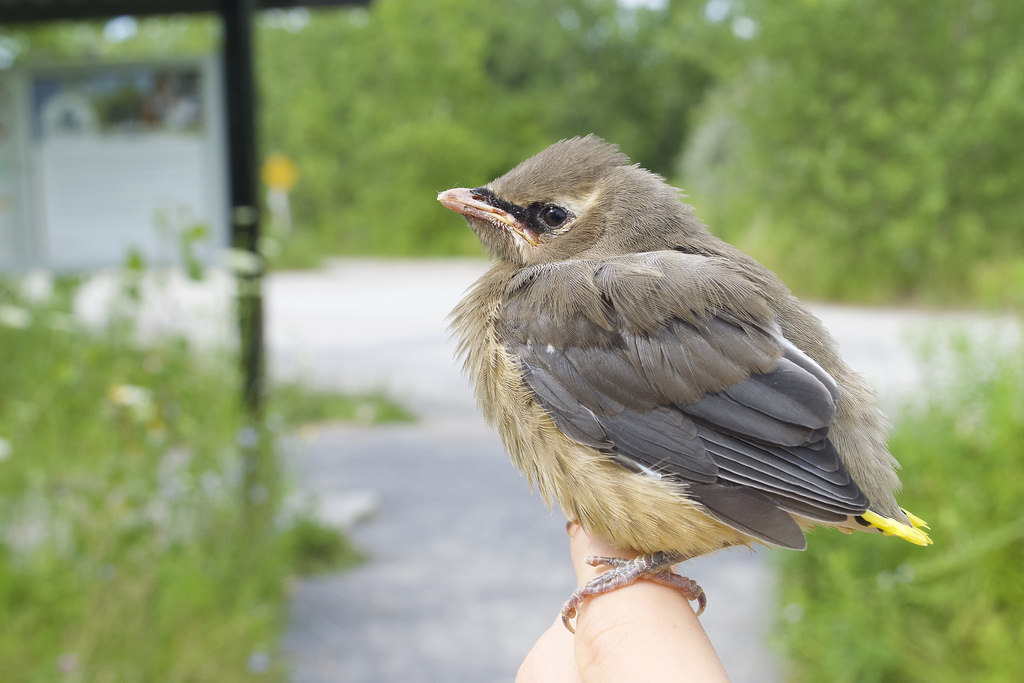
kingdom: Animalia
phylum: Chordata
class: Aves
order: Passeriformes
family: Bombycillidae
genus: Bombycilla
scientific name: Bombycilla cedrorum
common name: Cedar waxwing
